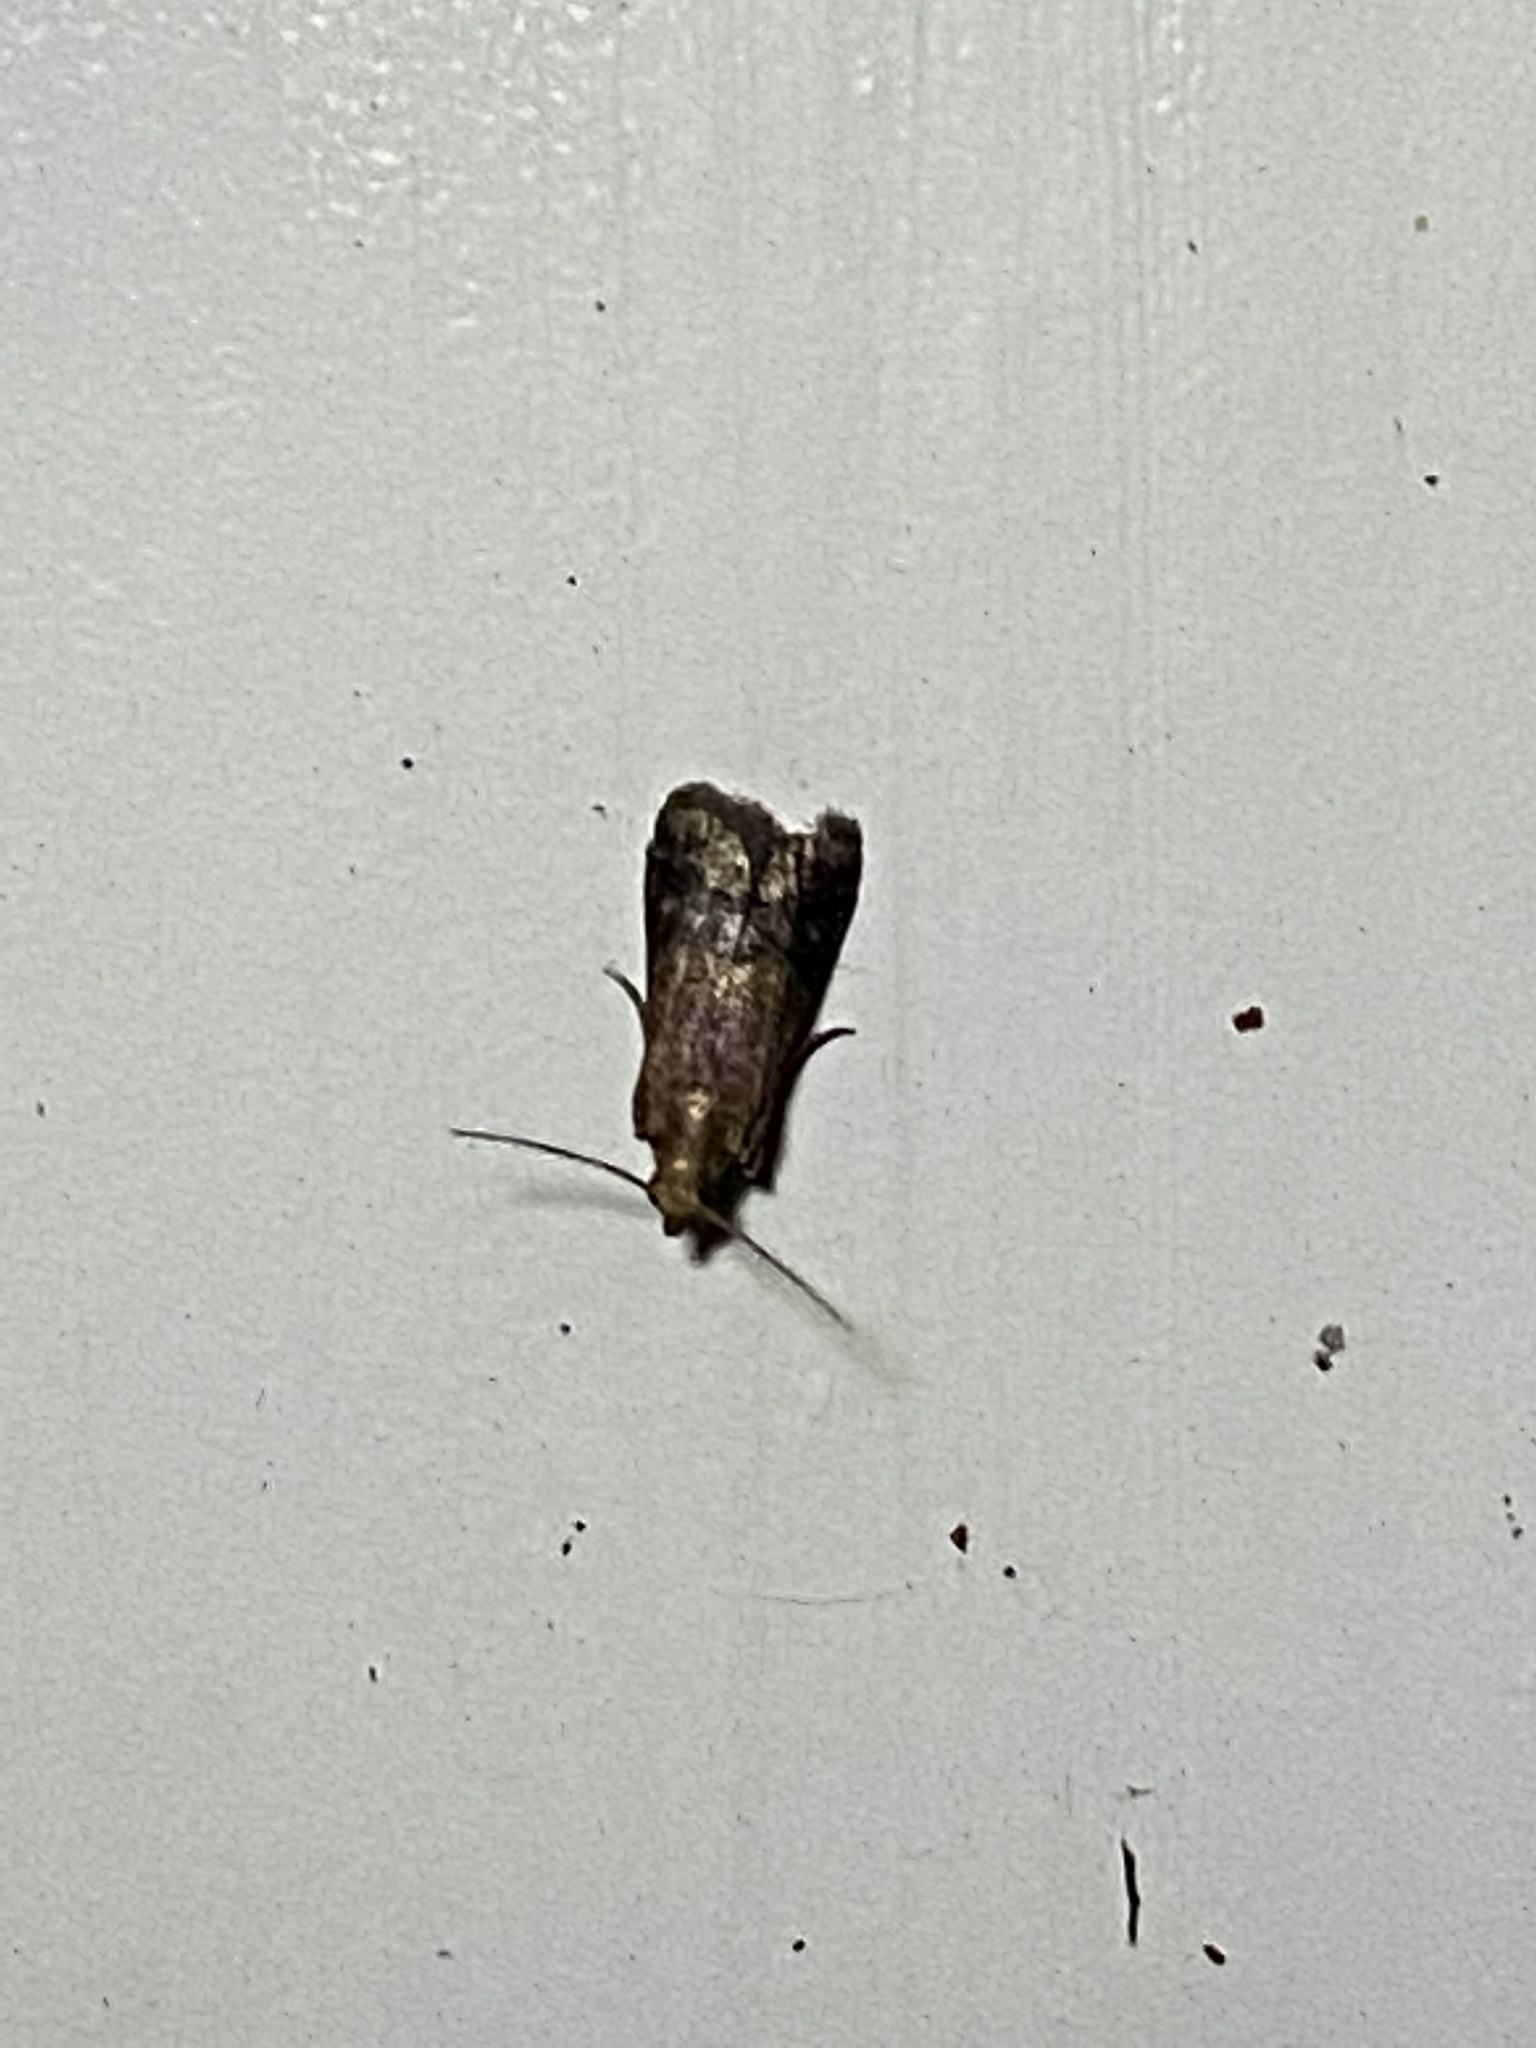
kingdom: Animalia
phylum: Arthropoda
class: Insecta
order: Lepidoptera
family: Pyralidae
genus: Eulogia
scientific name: Eulogia ochrifrontella
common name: Broad-banded eulogia moth
